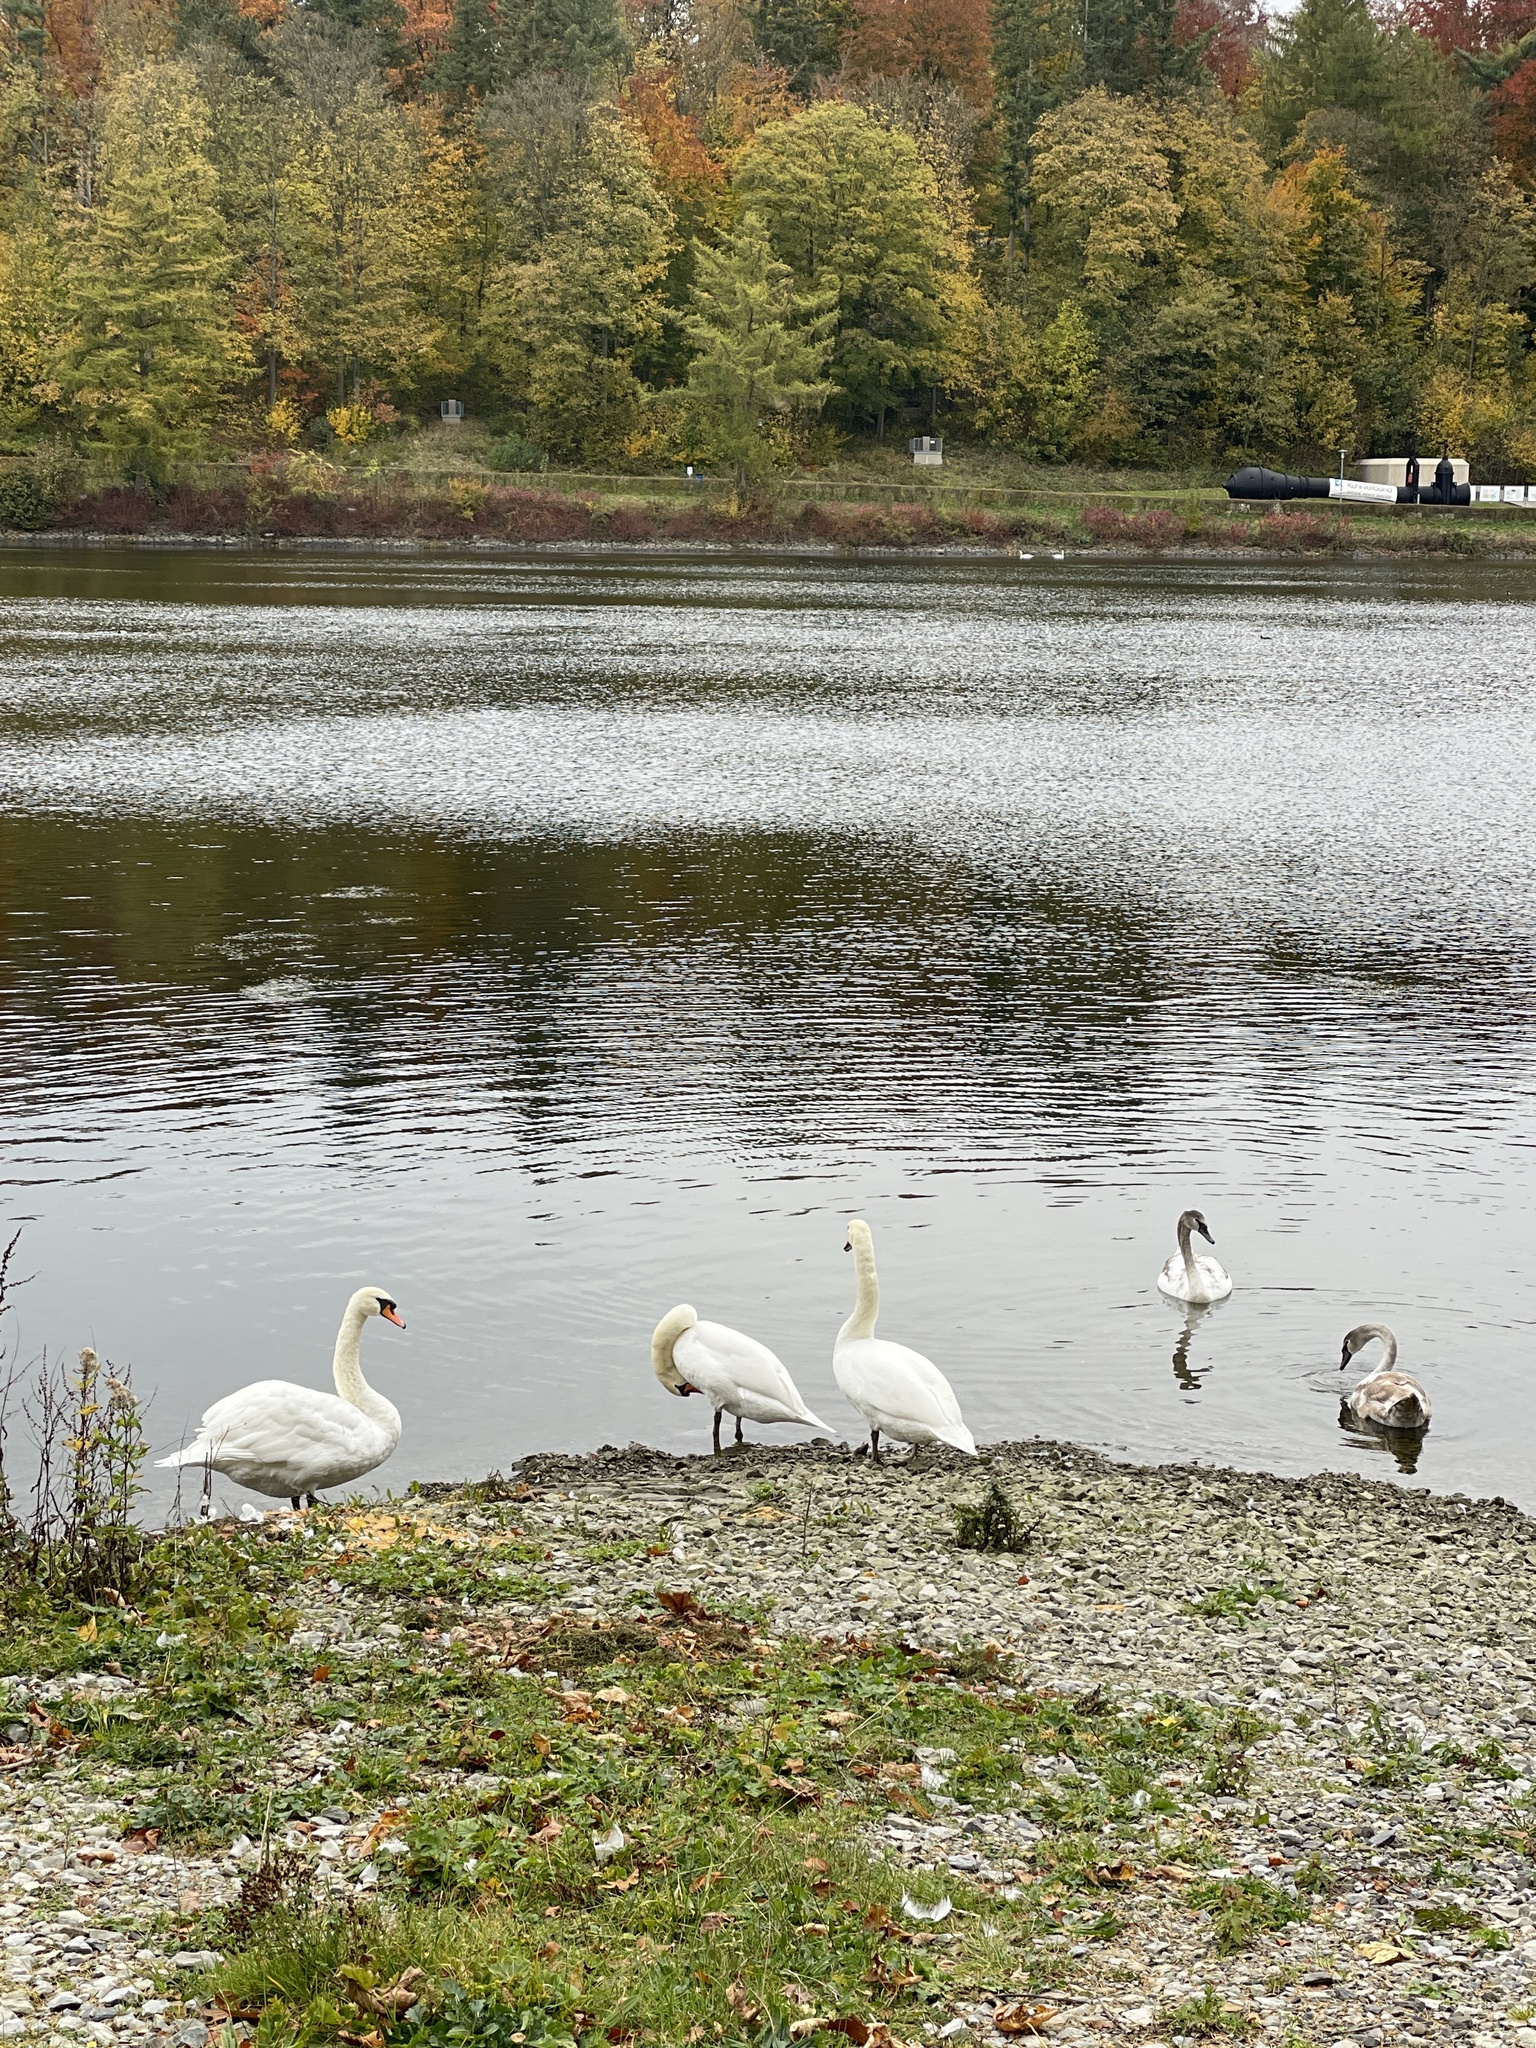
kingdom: Animalia
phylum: Chordata
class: Aves
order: Anseriformes
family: Anatidae
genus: Cygnus
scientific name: Cygnus olor
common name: Mute swan
